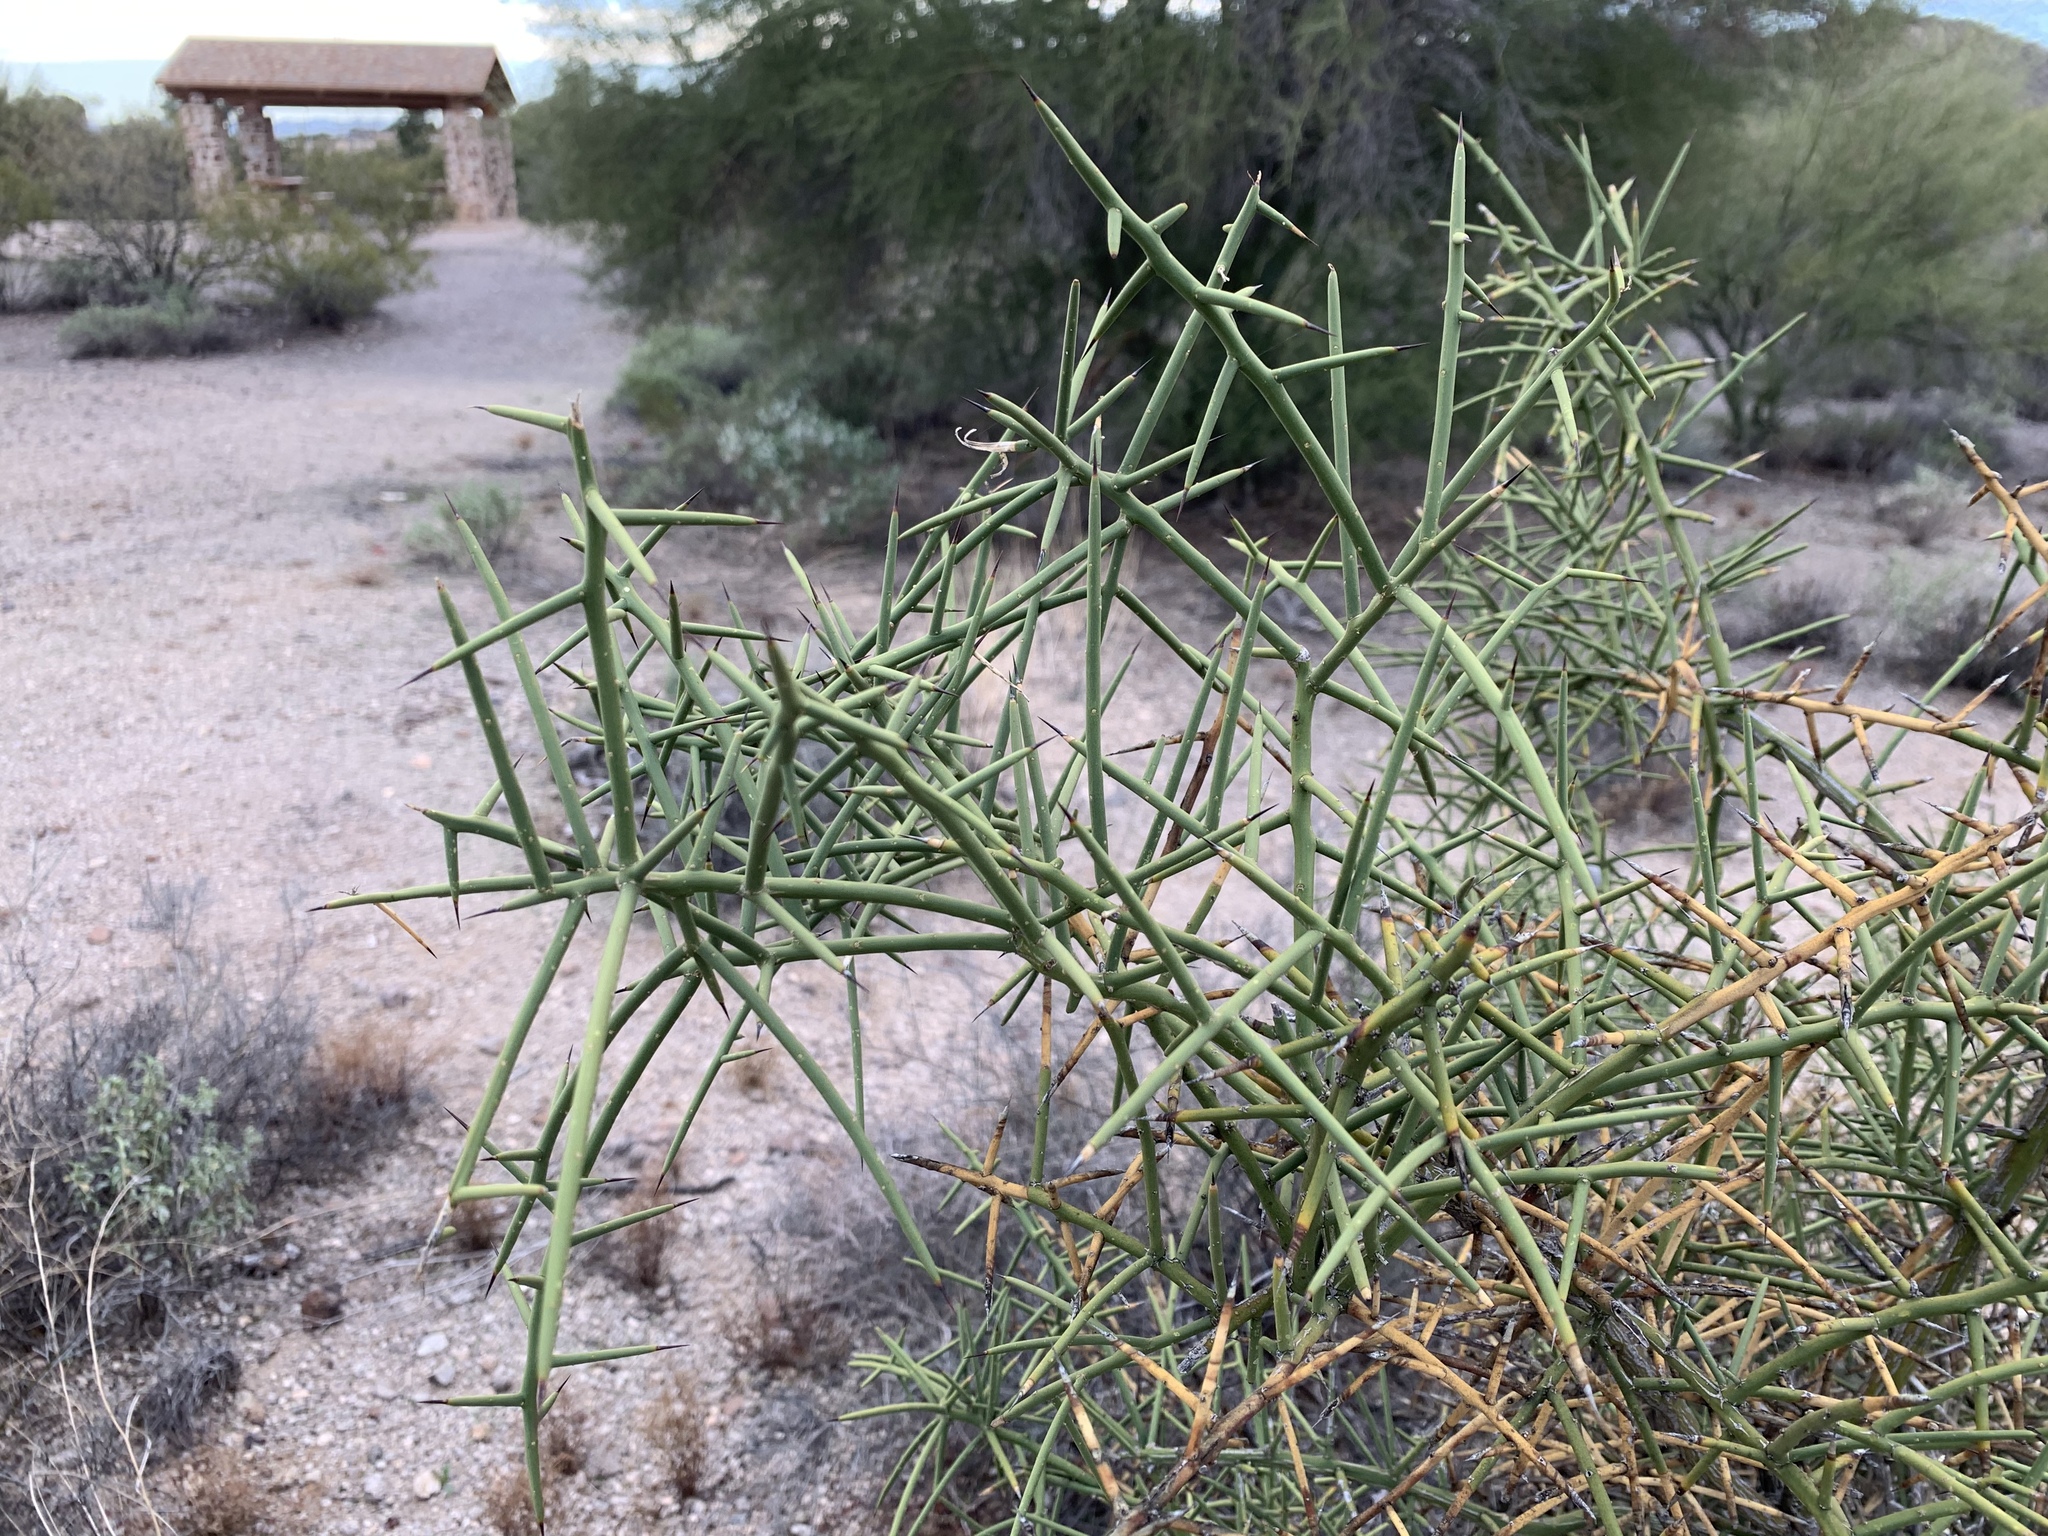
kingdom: Plantae
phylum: Tracheophyta
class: Magnoliopsida
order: Brassicales
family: Koeberliniaceae
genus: Koeberlinia
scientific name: Koeberlinia spinosa
